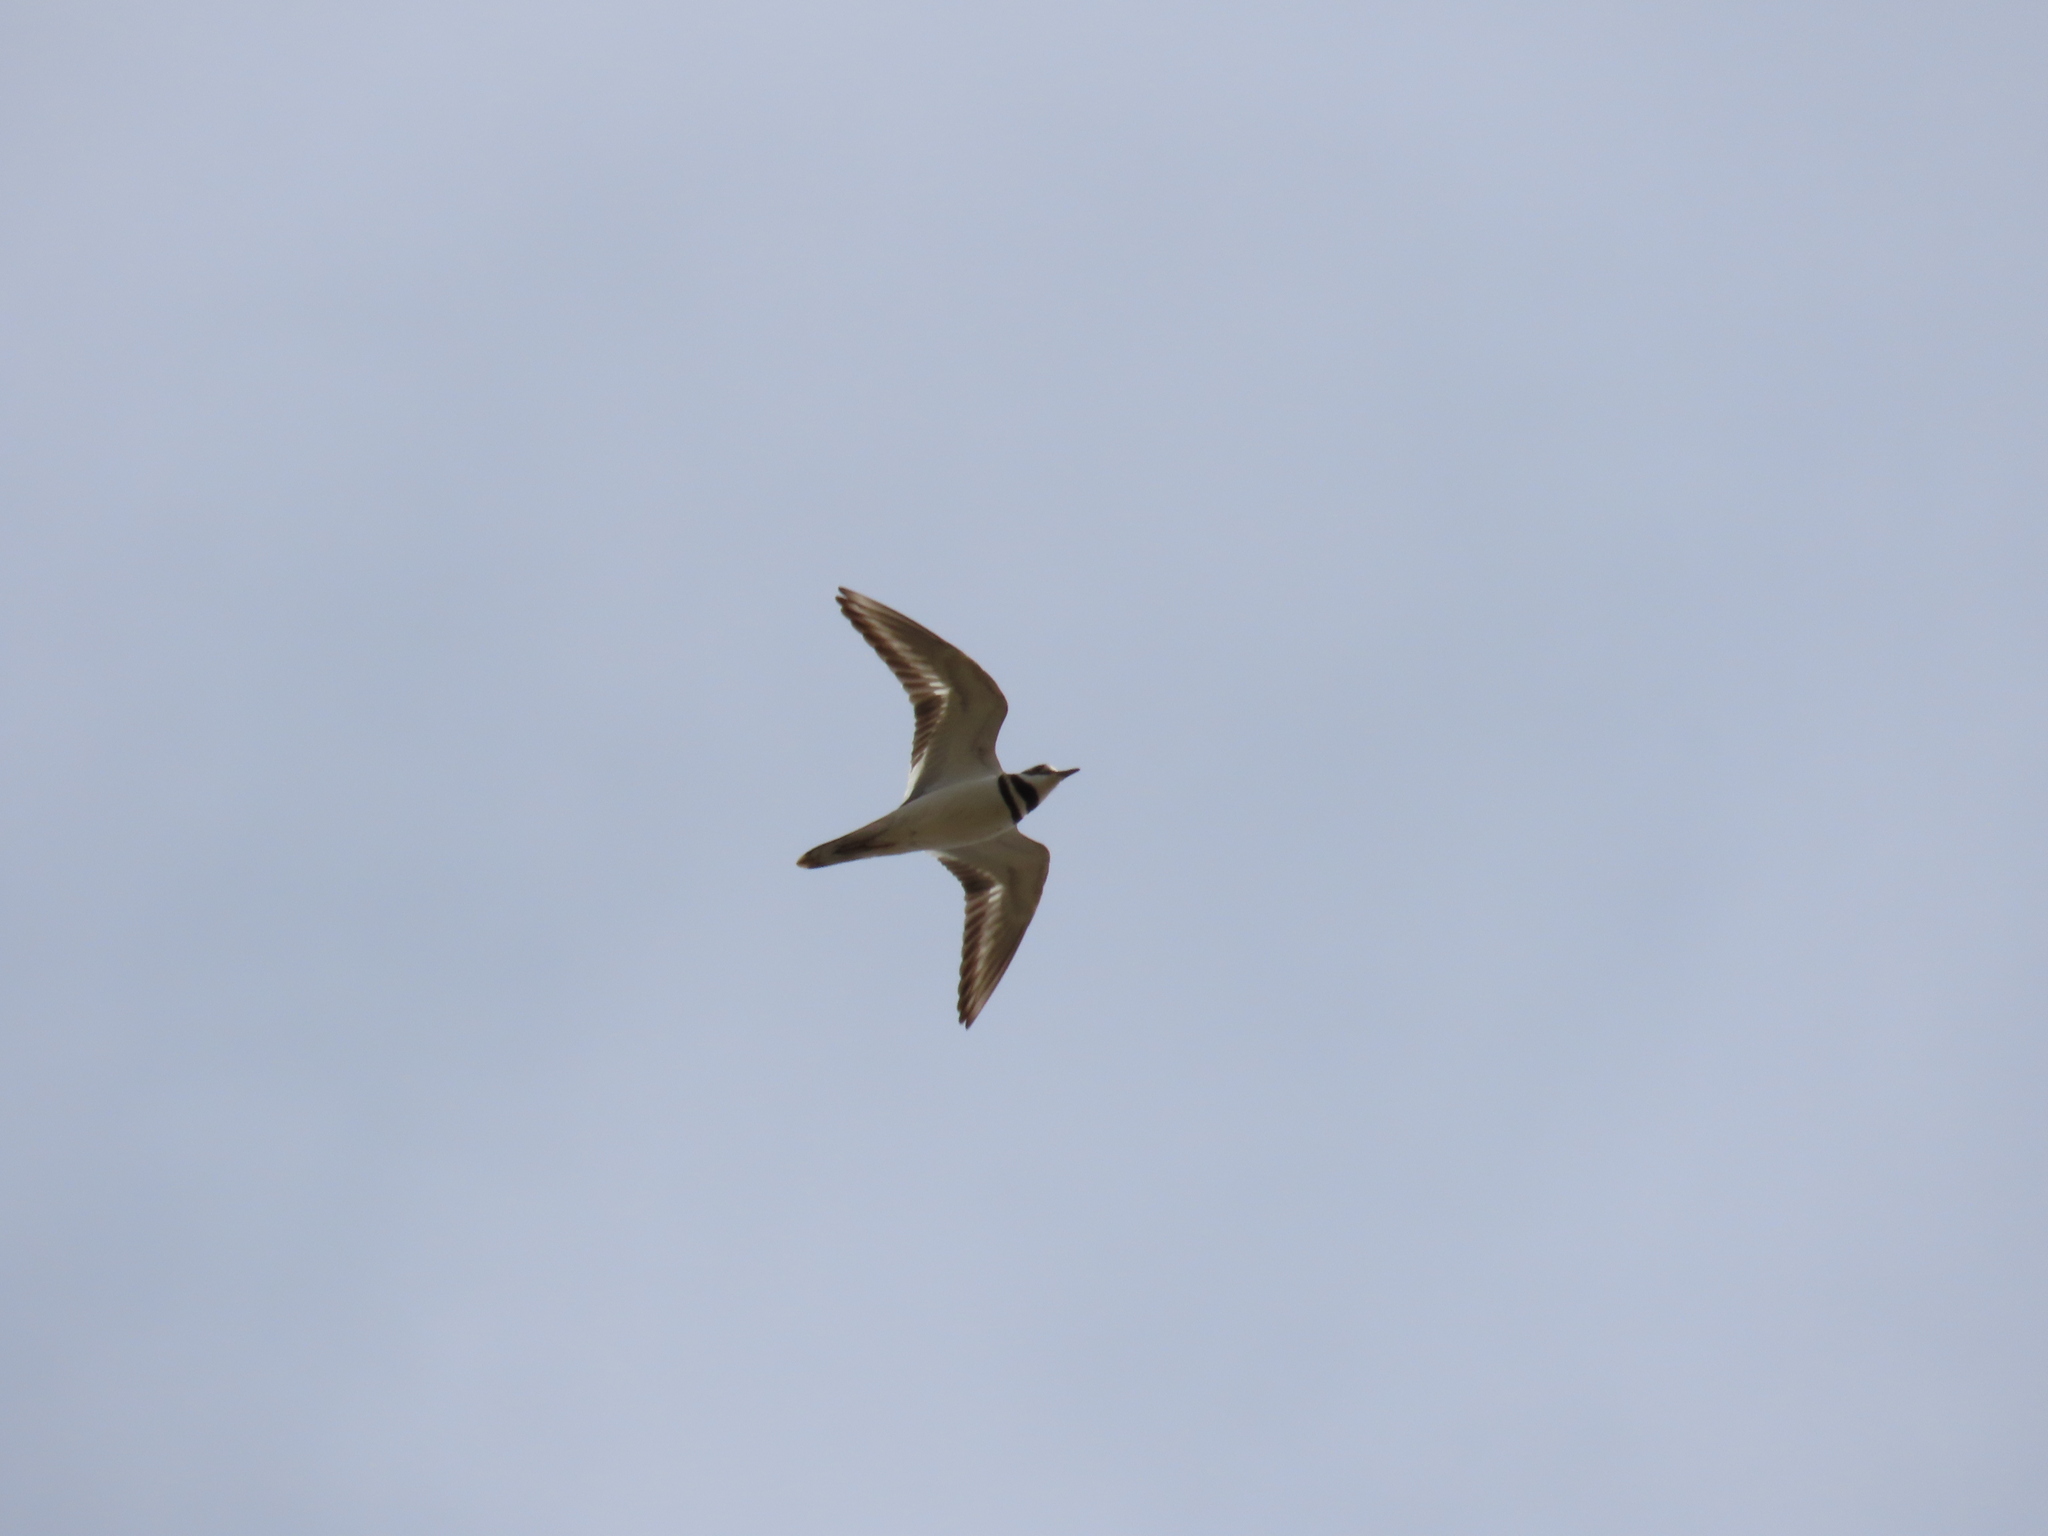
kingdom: Animalia
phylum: Chordata
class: Aves
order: Charadriiformes
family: Charadriidae
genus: Charadrius
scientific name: Charadrius vociferus
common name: Killdeer
